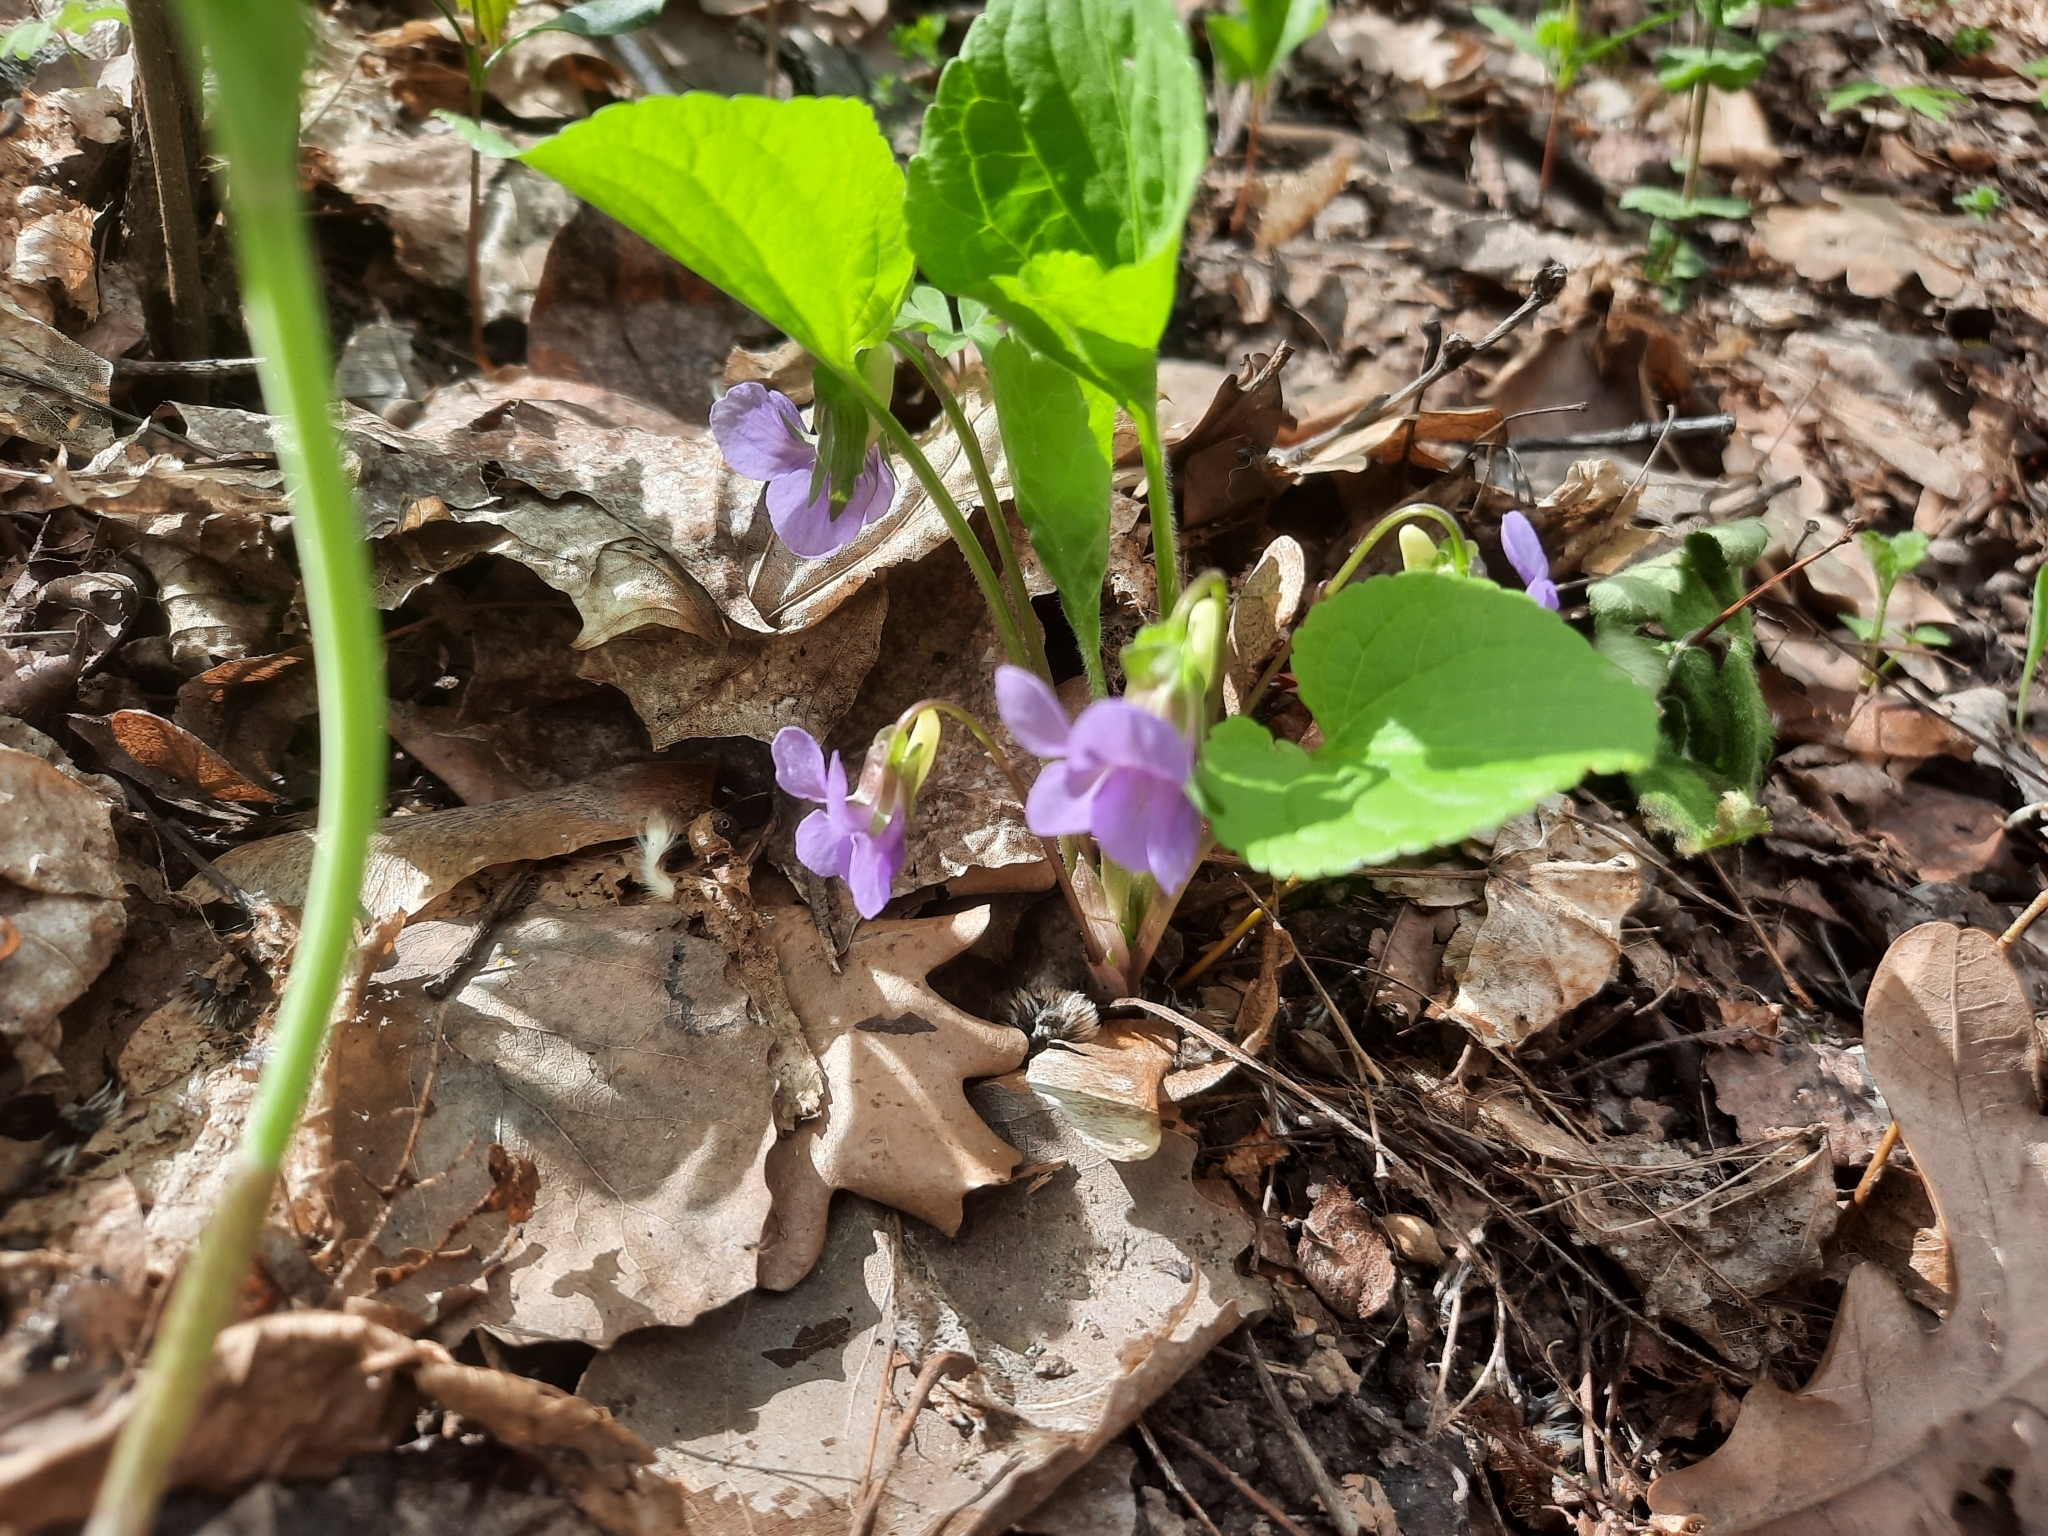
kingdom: Plantae
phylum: Tracheophyta
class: Magnoliopsida
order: Malpighiales
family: Violaceae
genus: Viola
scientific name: Viola mirabilis
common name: Wonder violet
